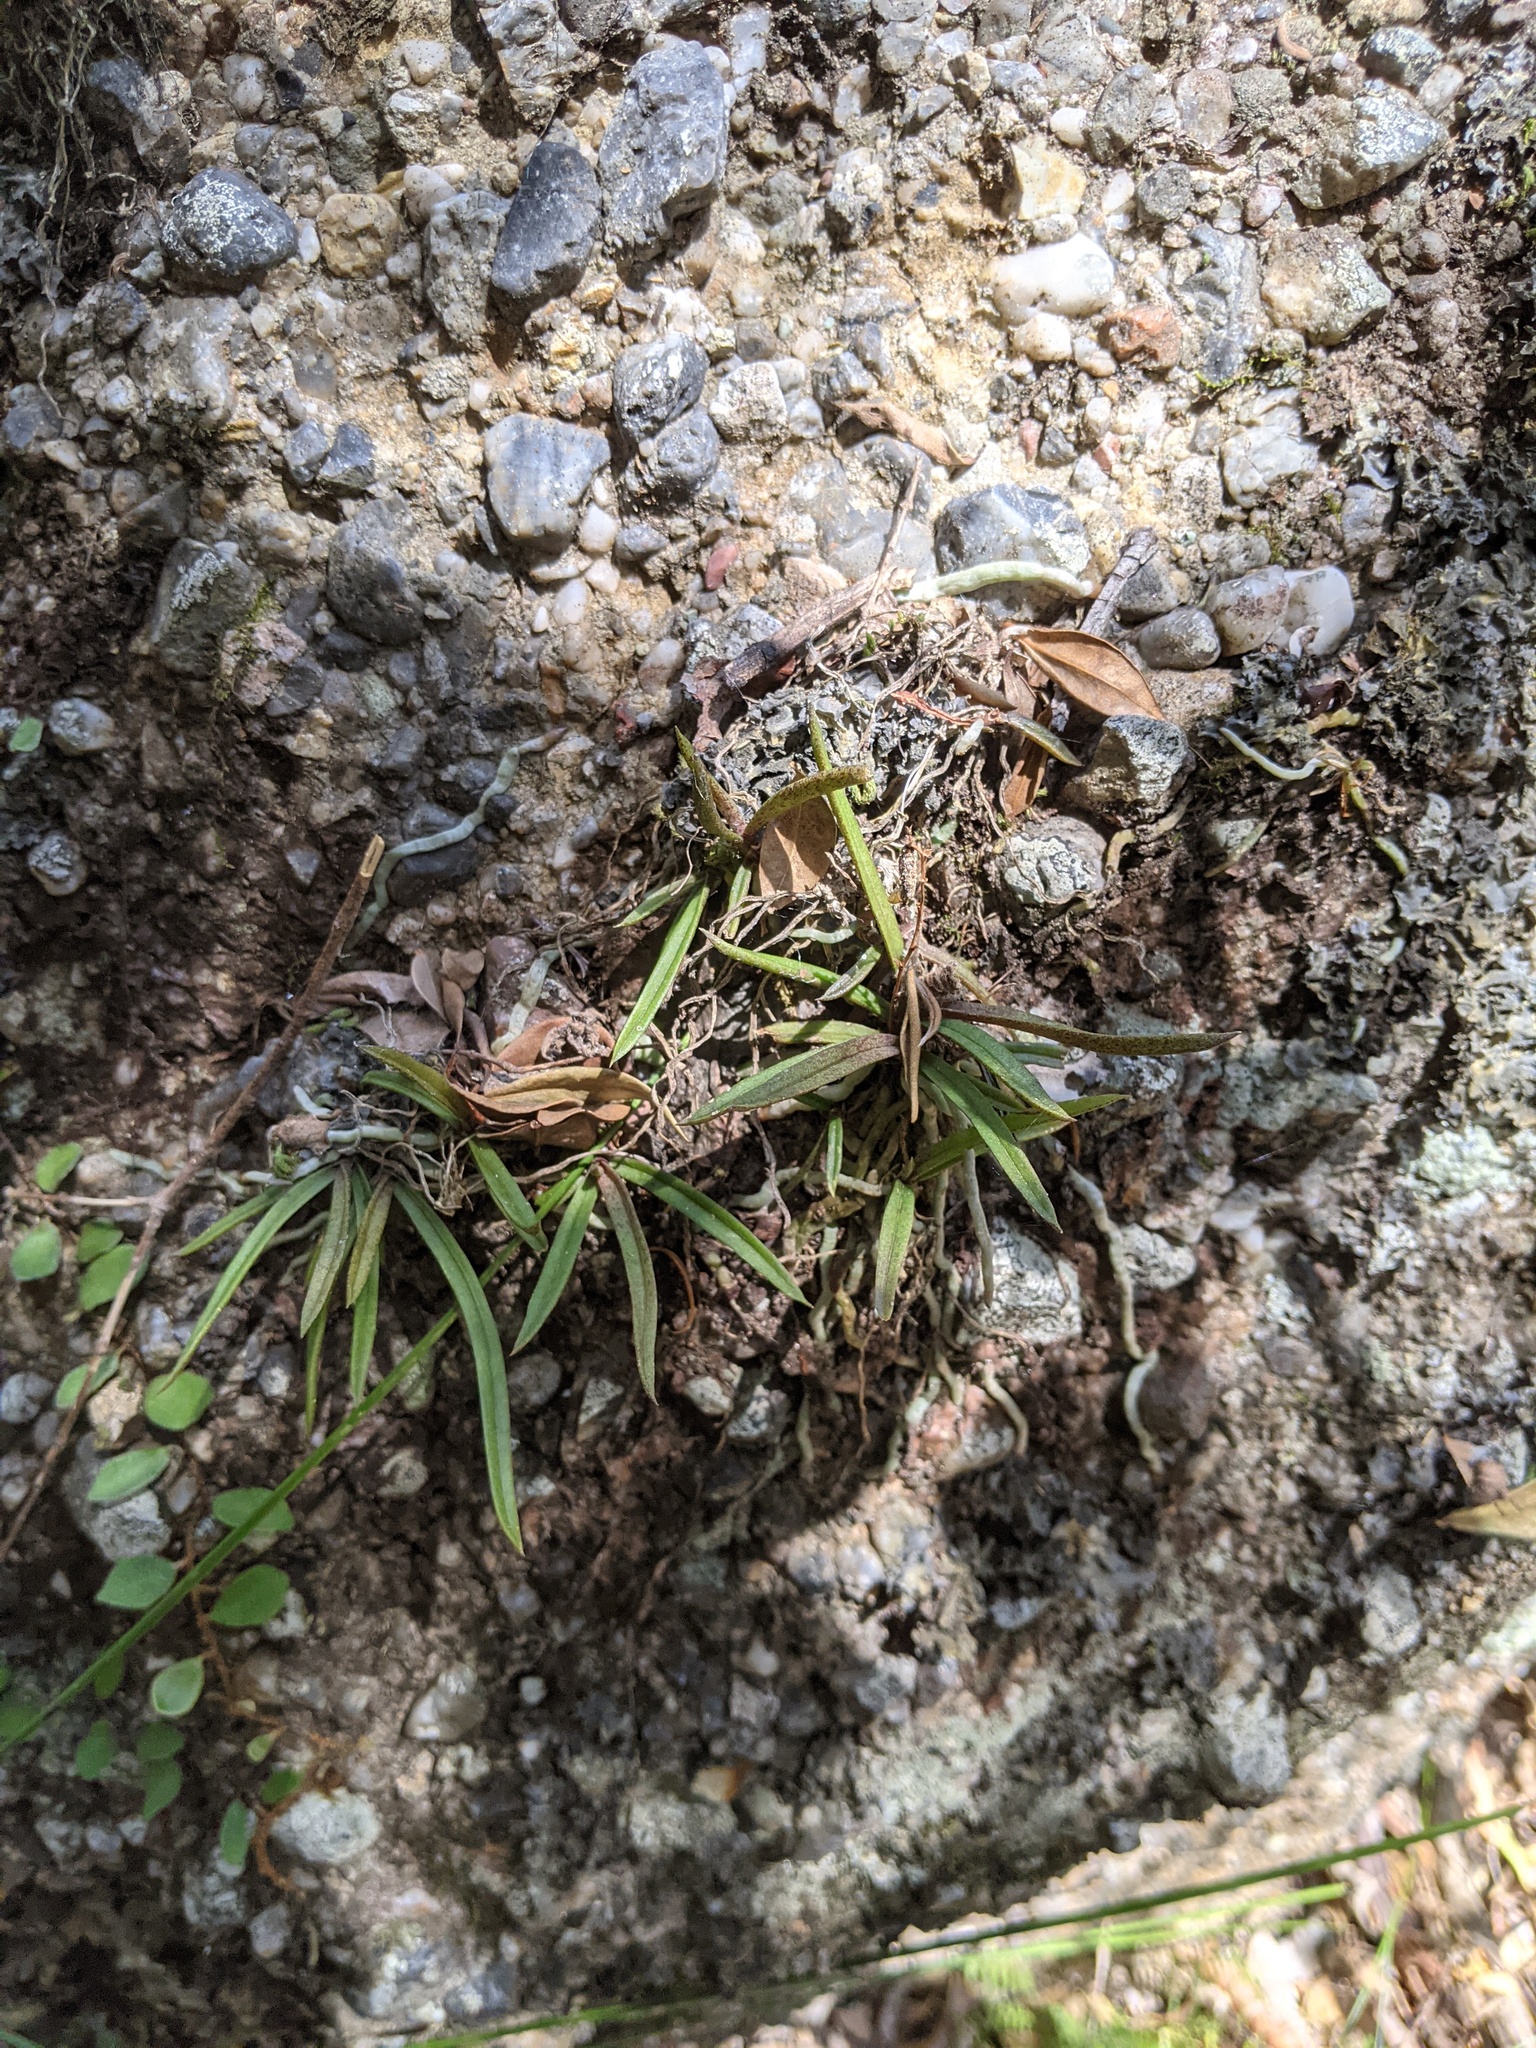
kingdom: Plantae
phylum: Tracheophyta
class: Liliopsida
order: Asparagales
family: Orchidaceae
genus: Sarcochilus
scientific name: Sarcochilus ceciliae
